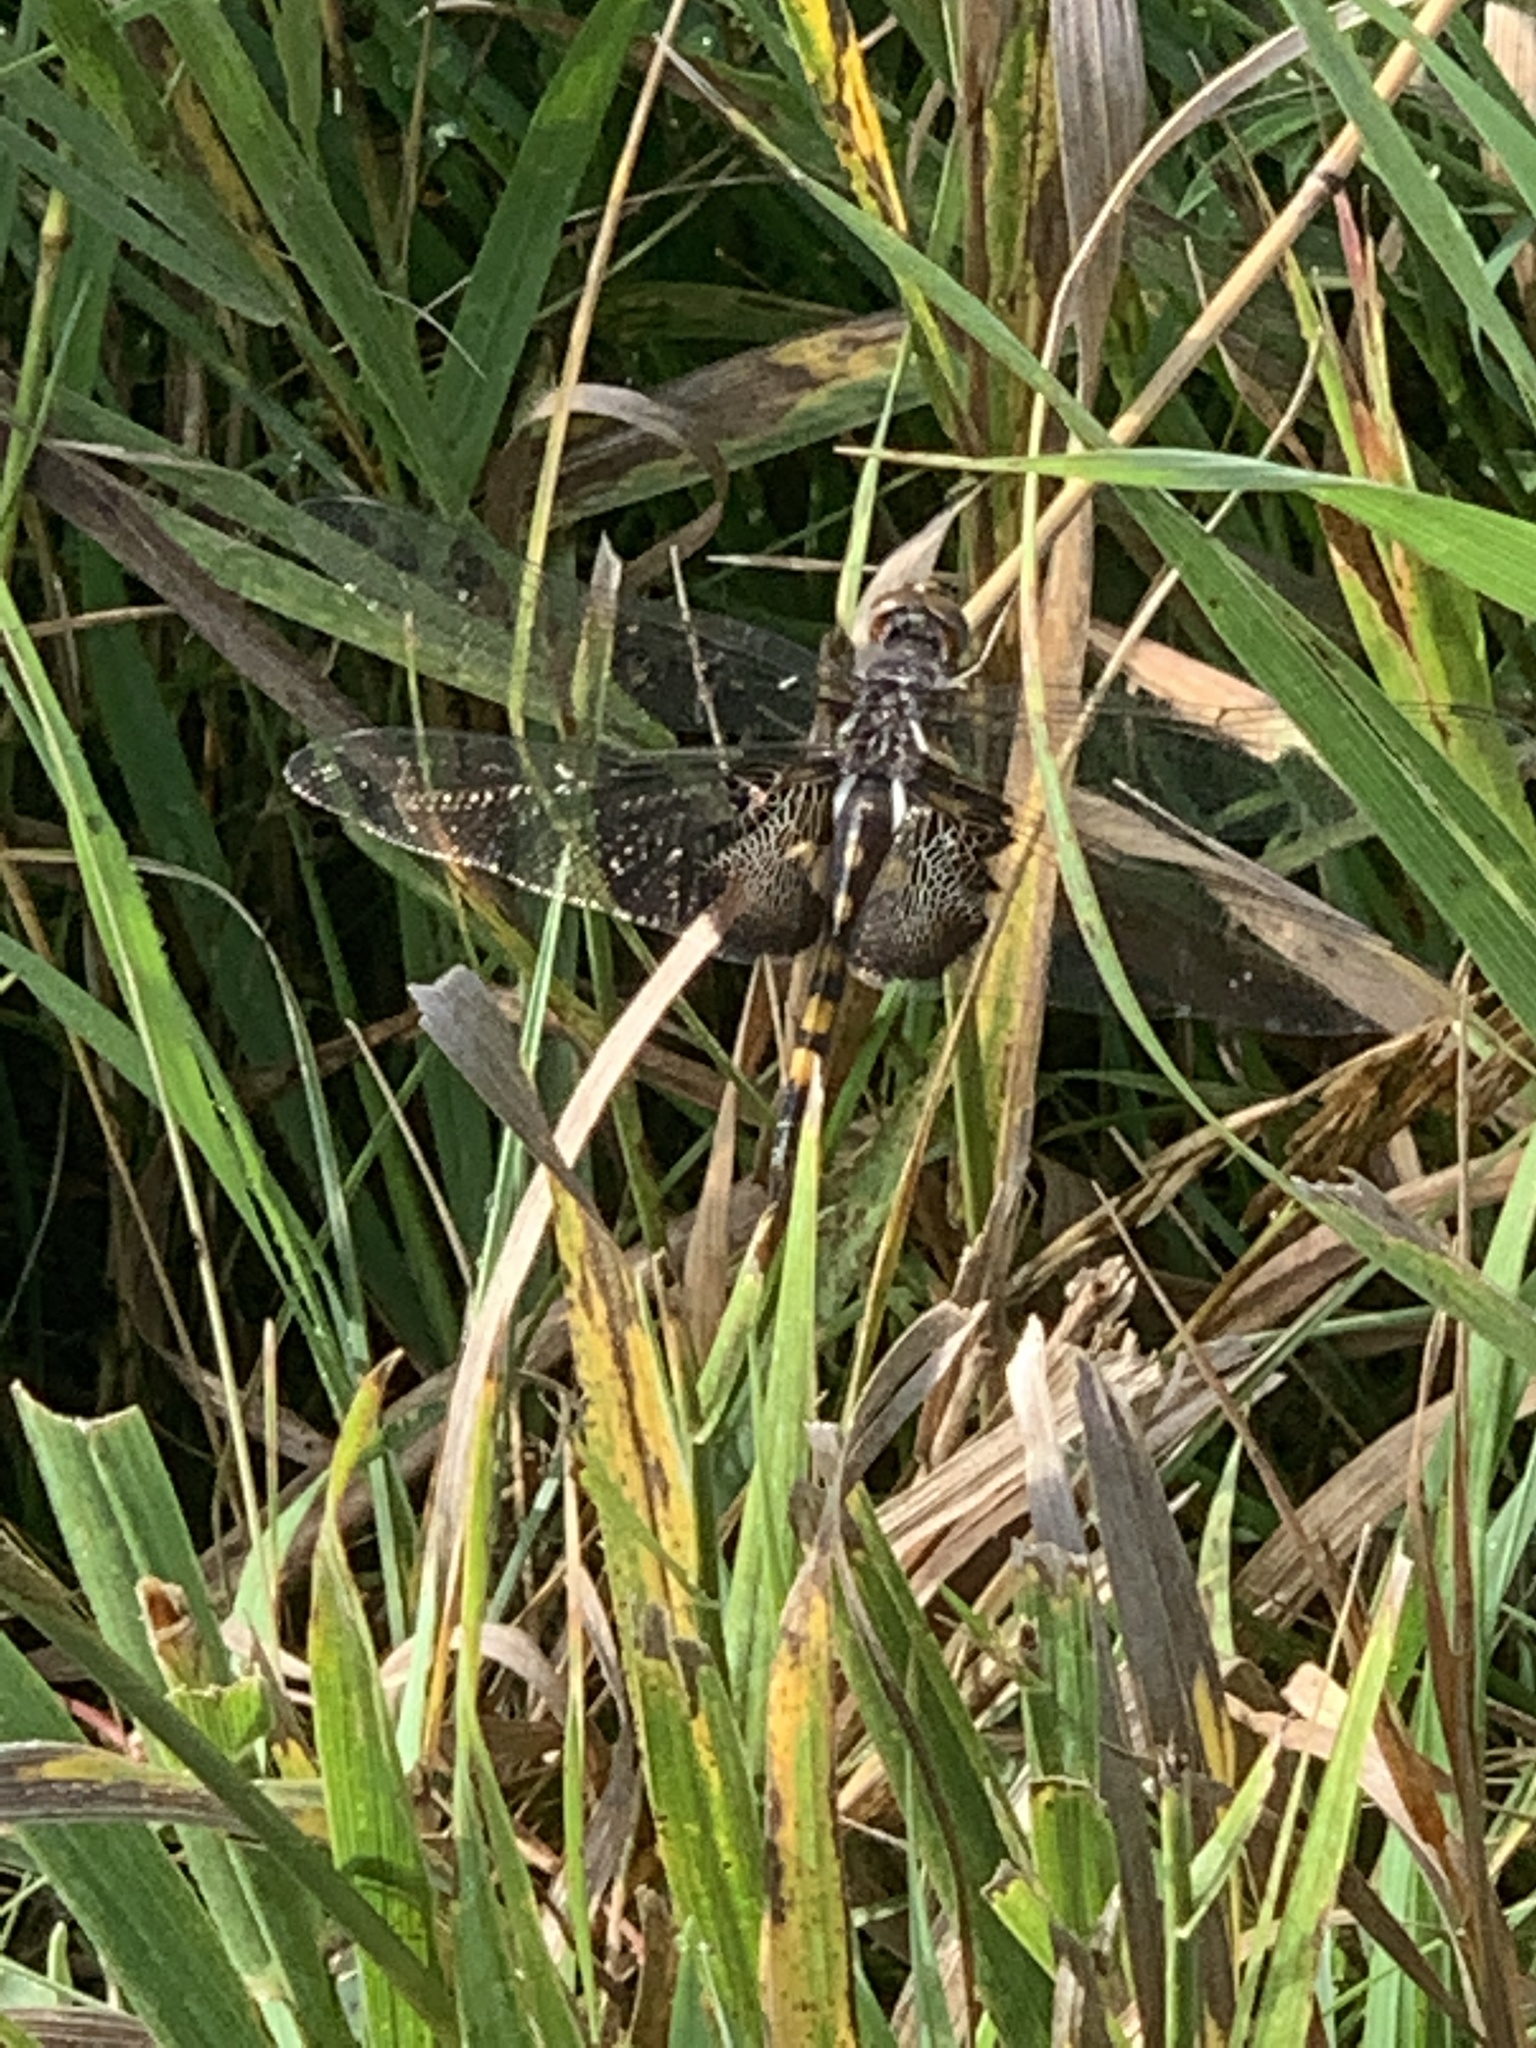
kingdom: Animalia
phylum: Arthropoda
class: Insecta
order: Odonata
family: Libellulidae
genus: Tramea
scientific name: Tramea lacerata
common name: Black saddlebags
